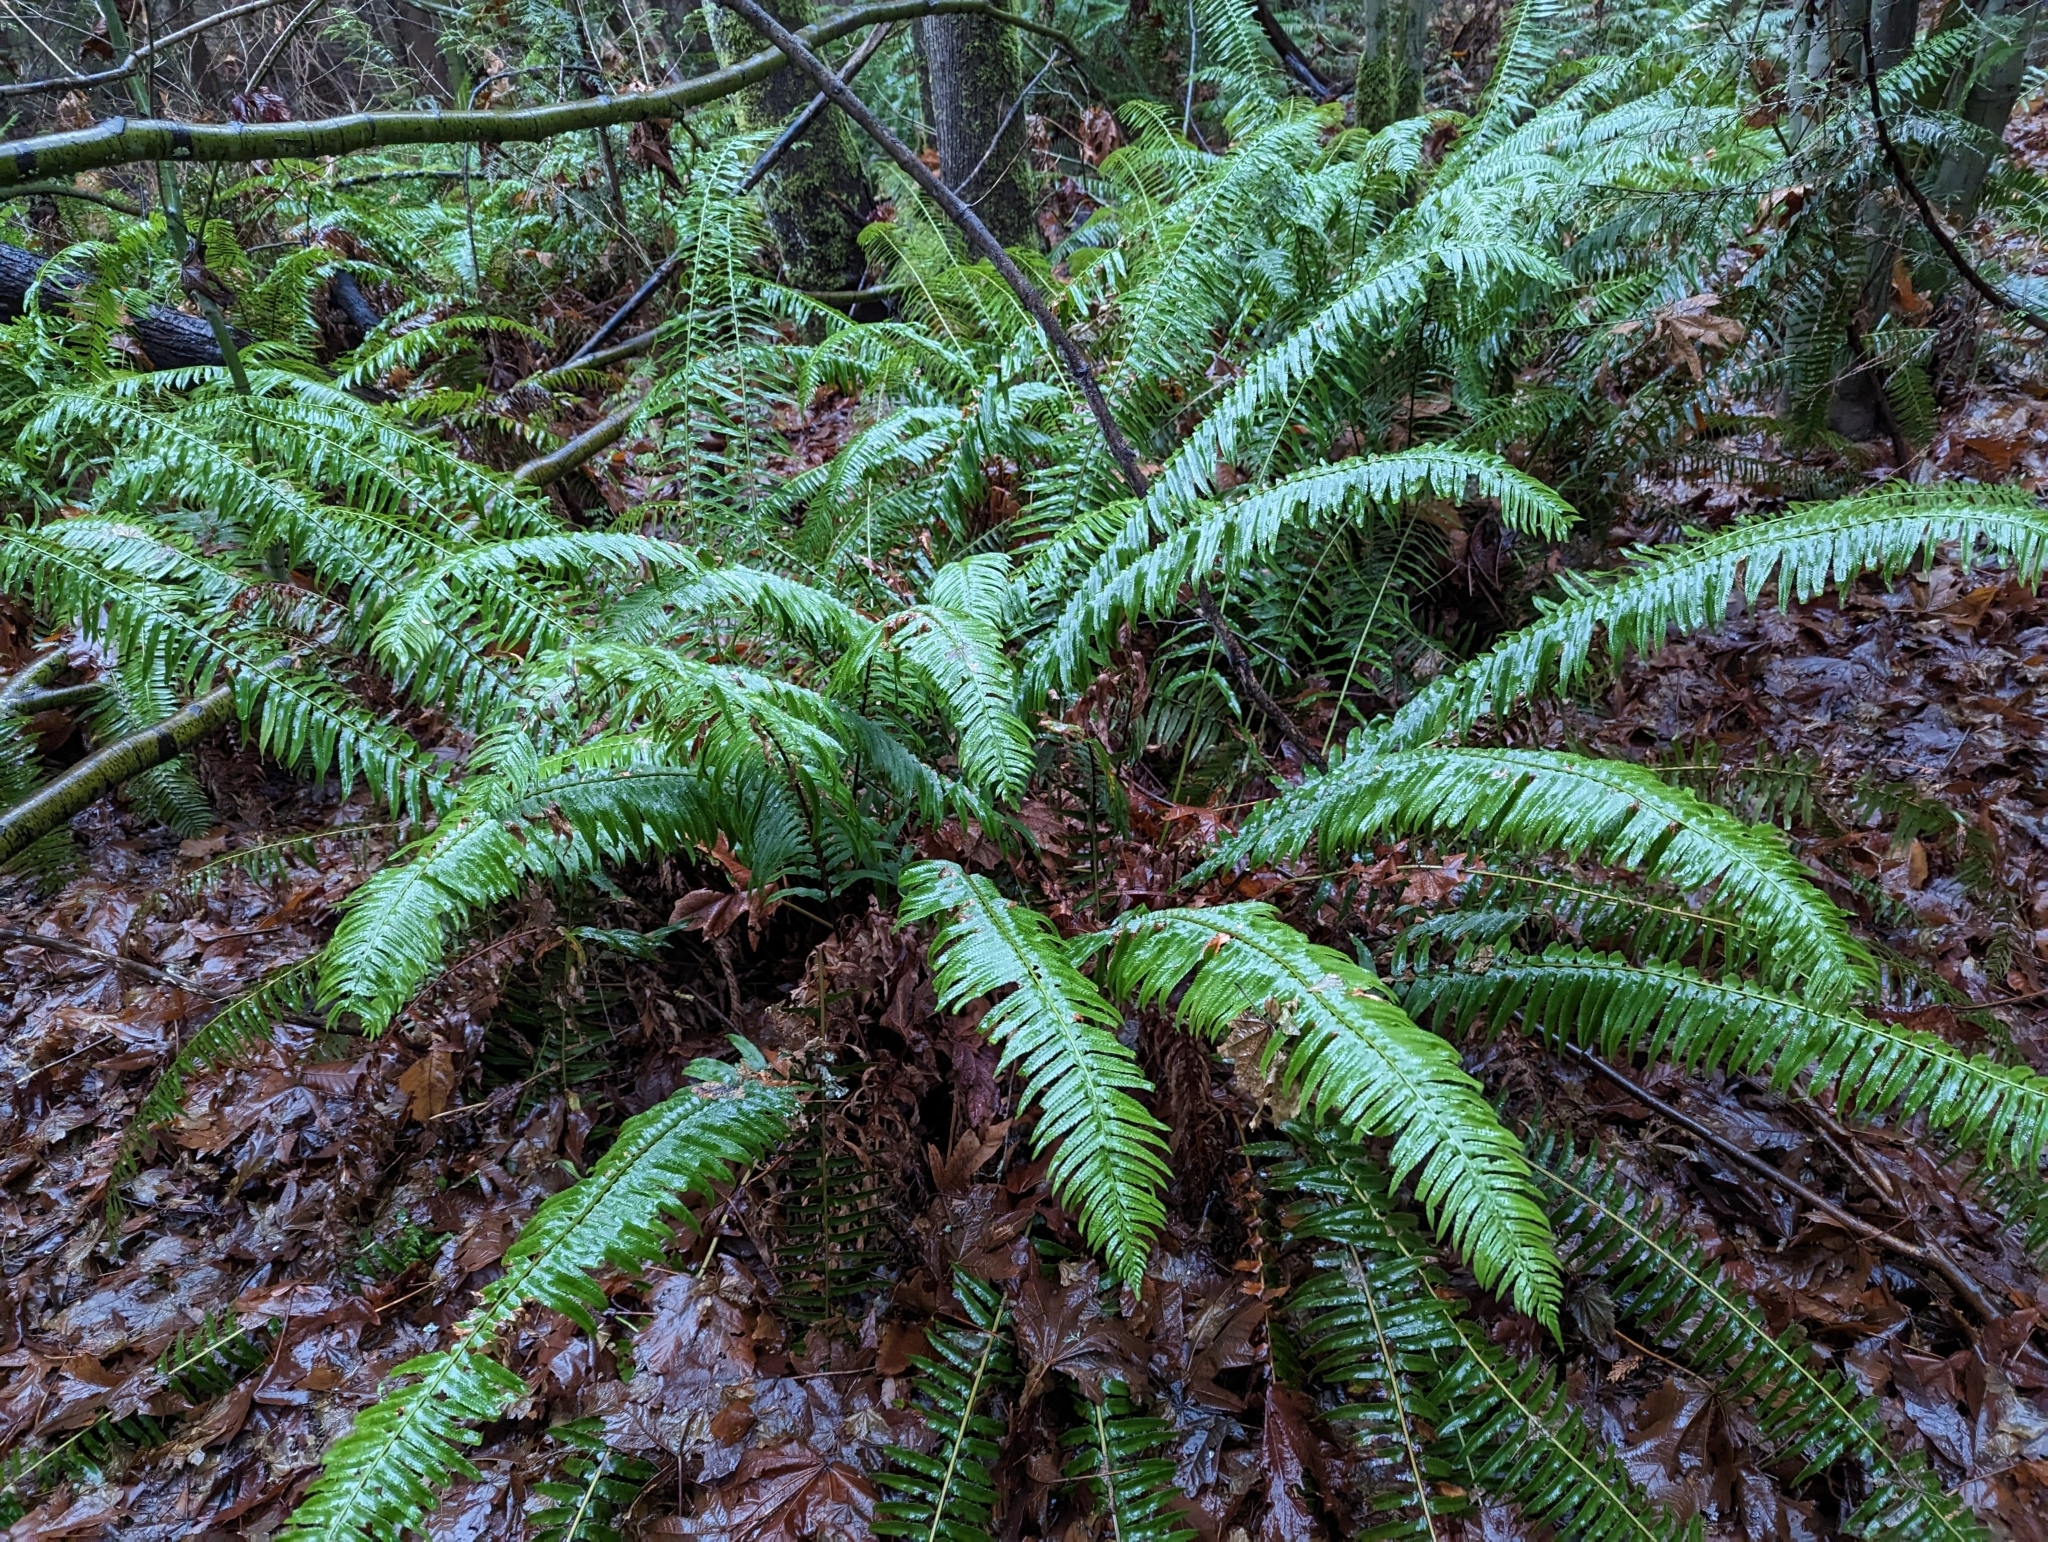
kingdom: Plantae
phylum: Tracheophyta
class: Polypodiopsida
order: Polypodiales
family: Dryopteridaceae
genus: Polystichum
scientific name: Polystichum munitum
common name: Western sword-fern
